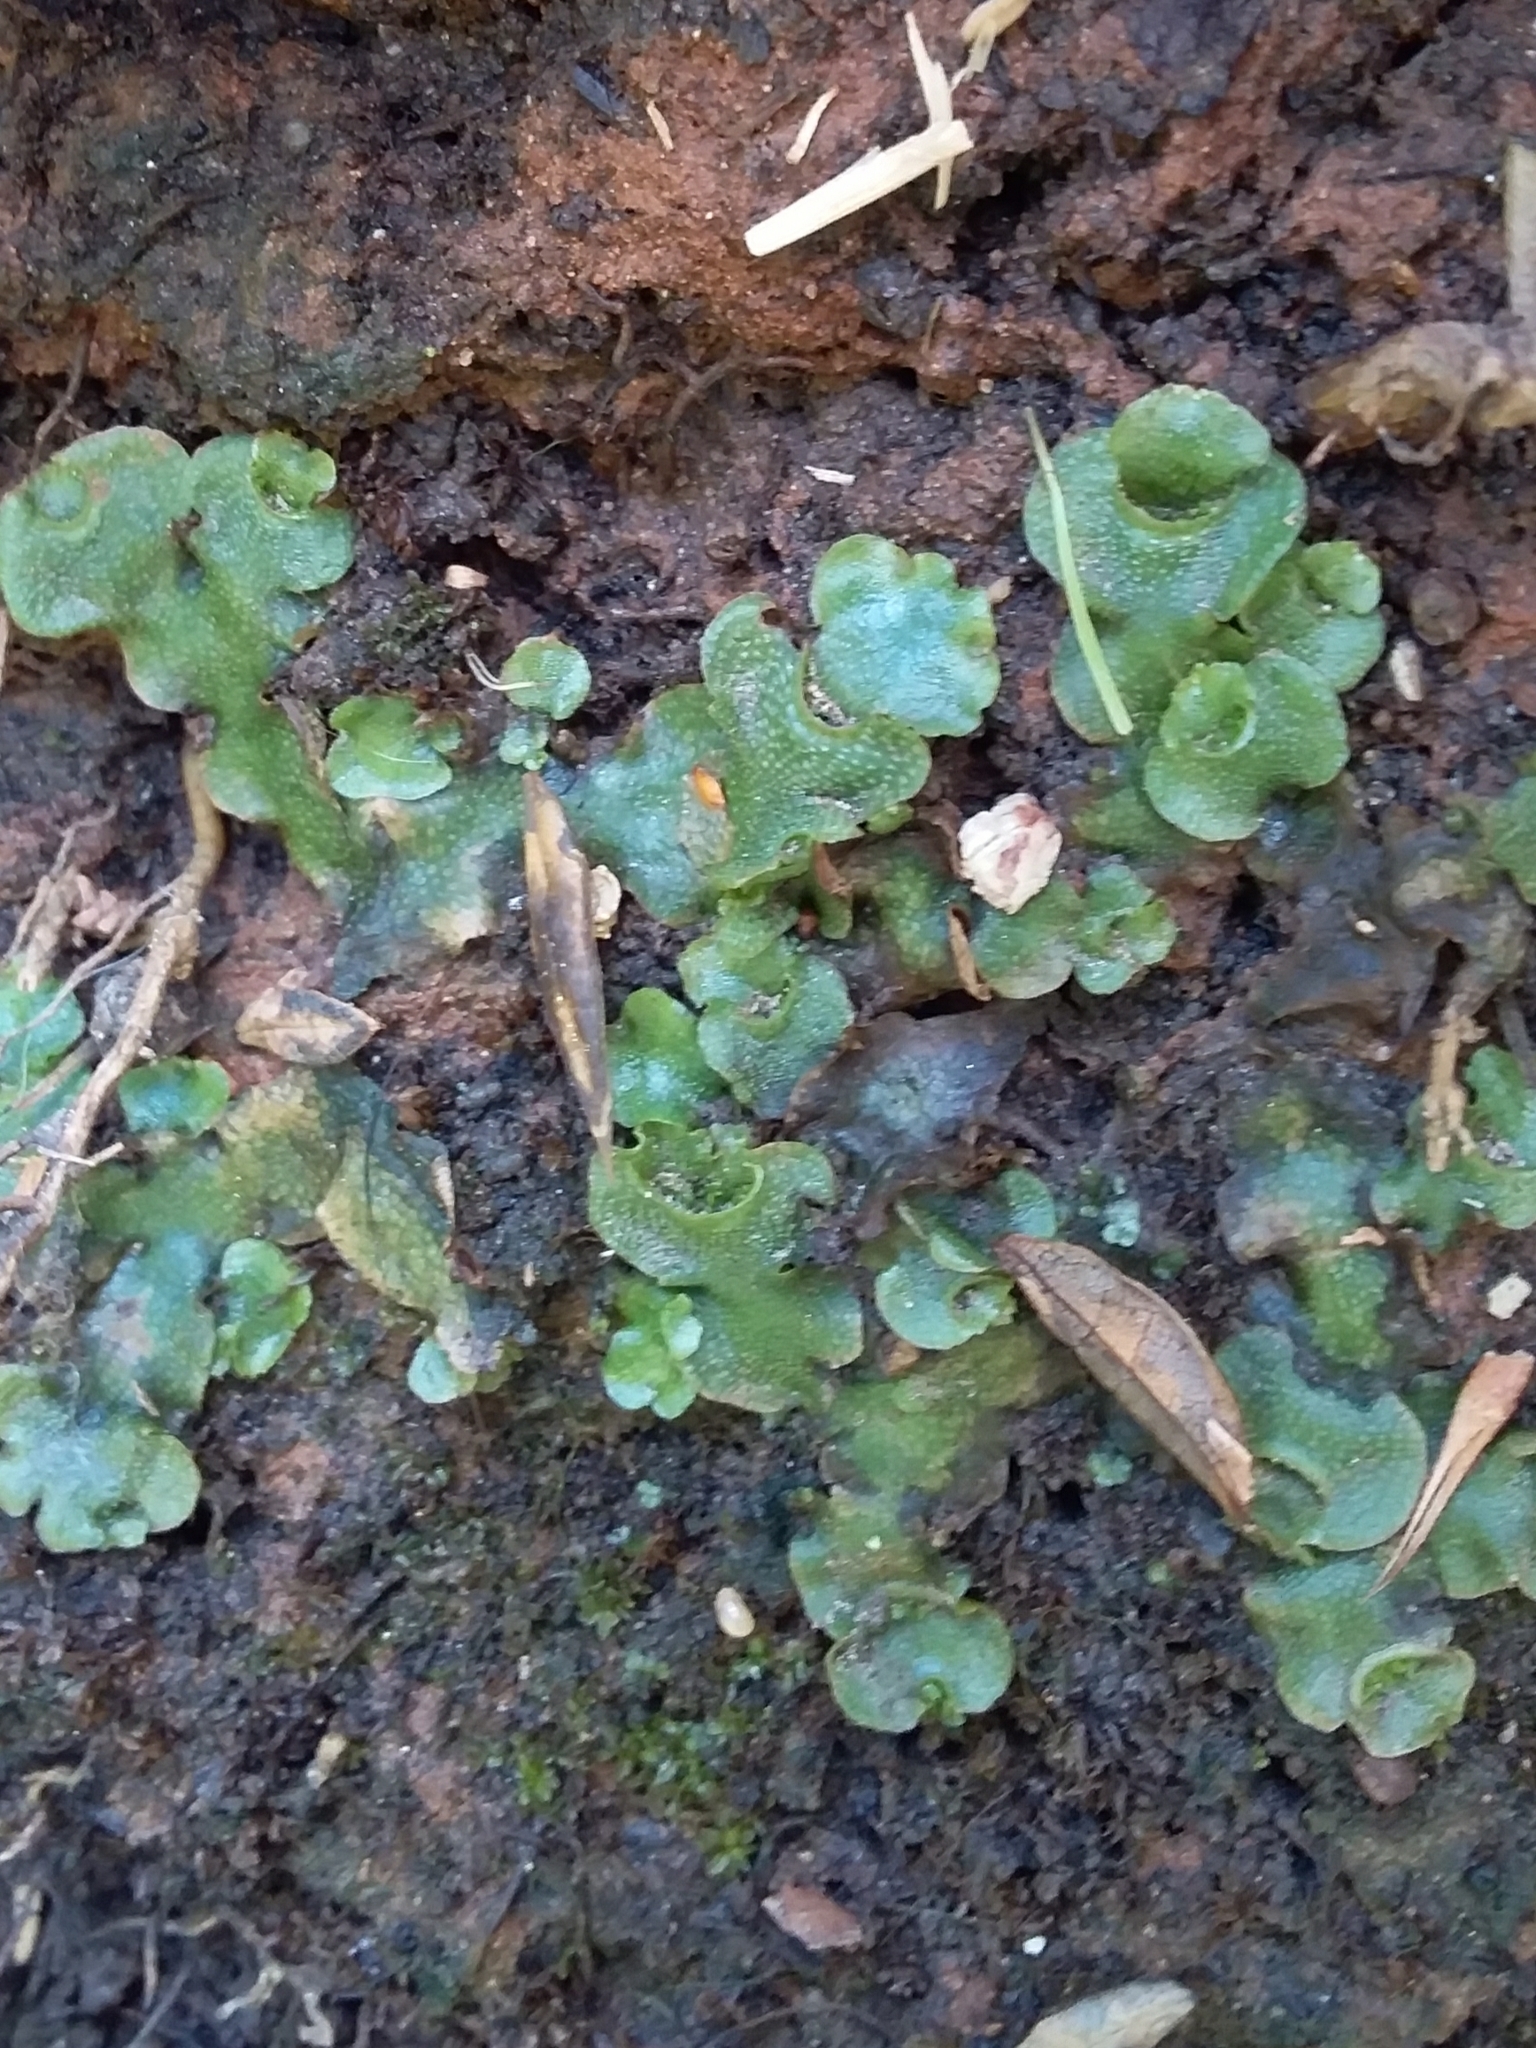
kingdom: Plantae
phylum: Marchantiophyta
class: Marchantiopsida
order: Lunulariales
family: Lunulariaceae
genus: Lunularia
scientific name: Lunularia cruciata
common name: Crescent-cup liverwort
